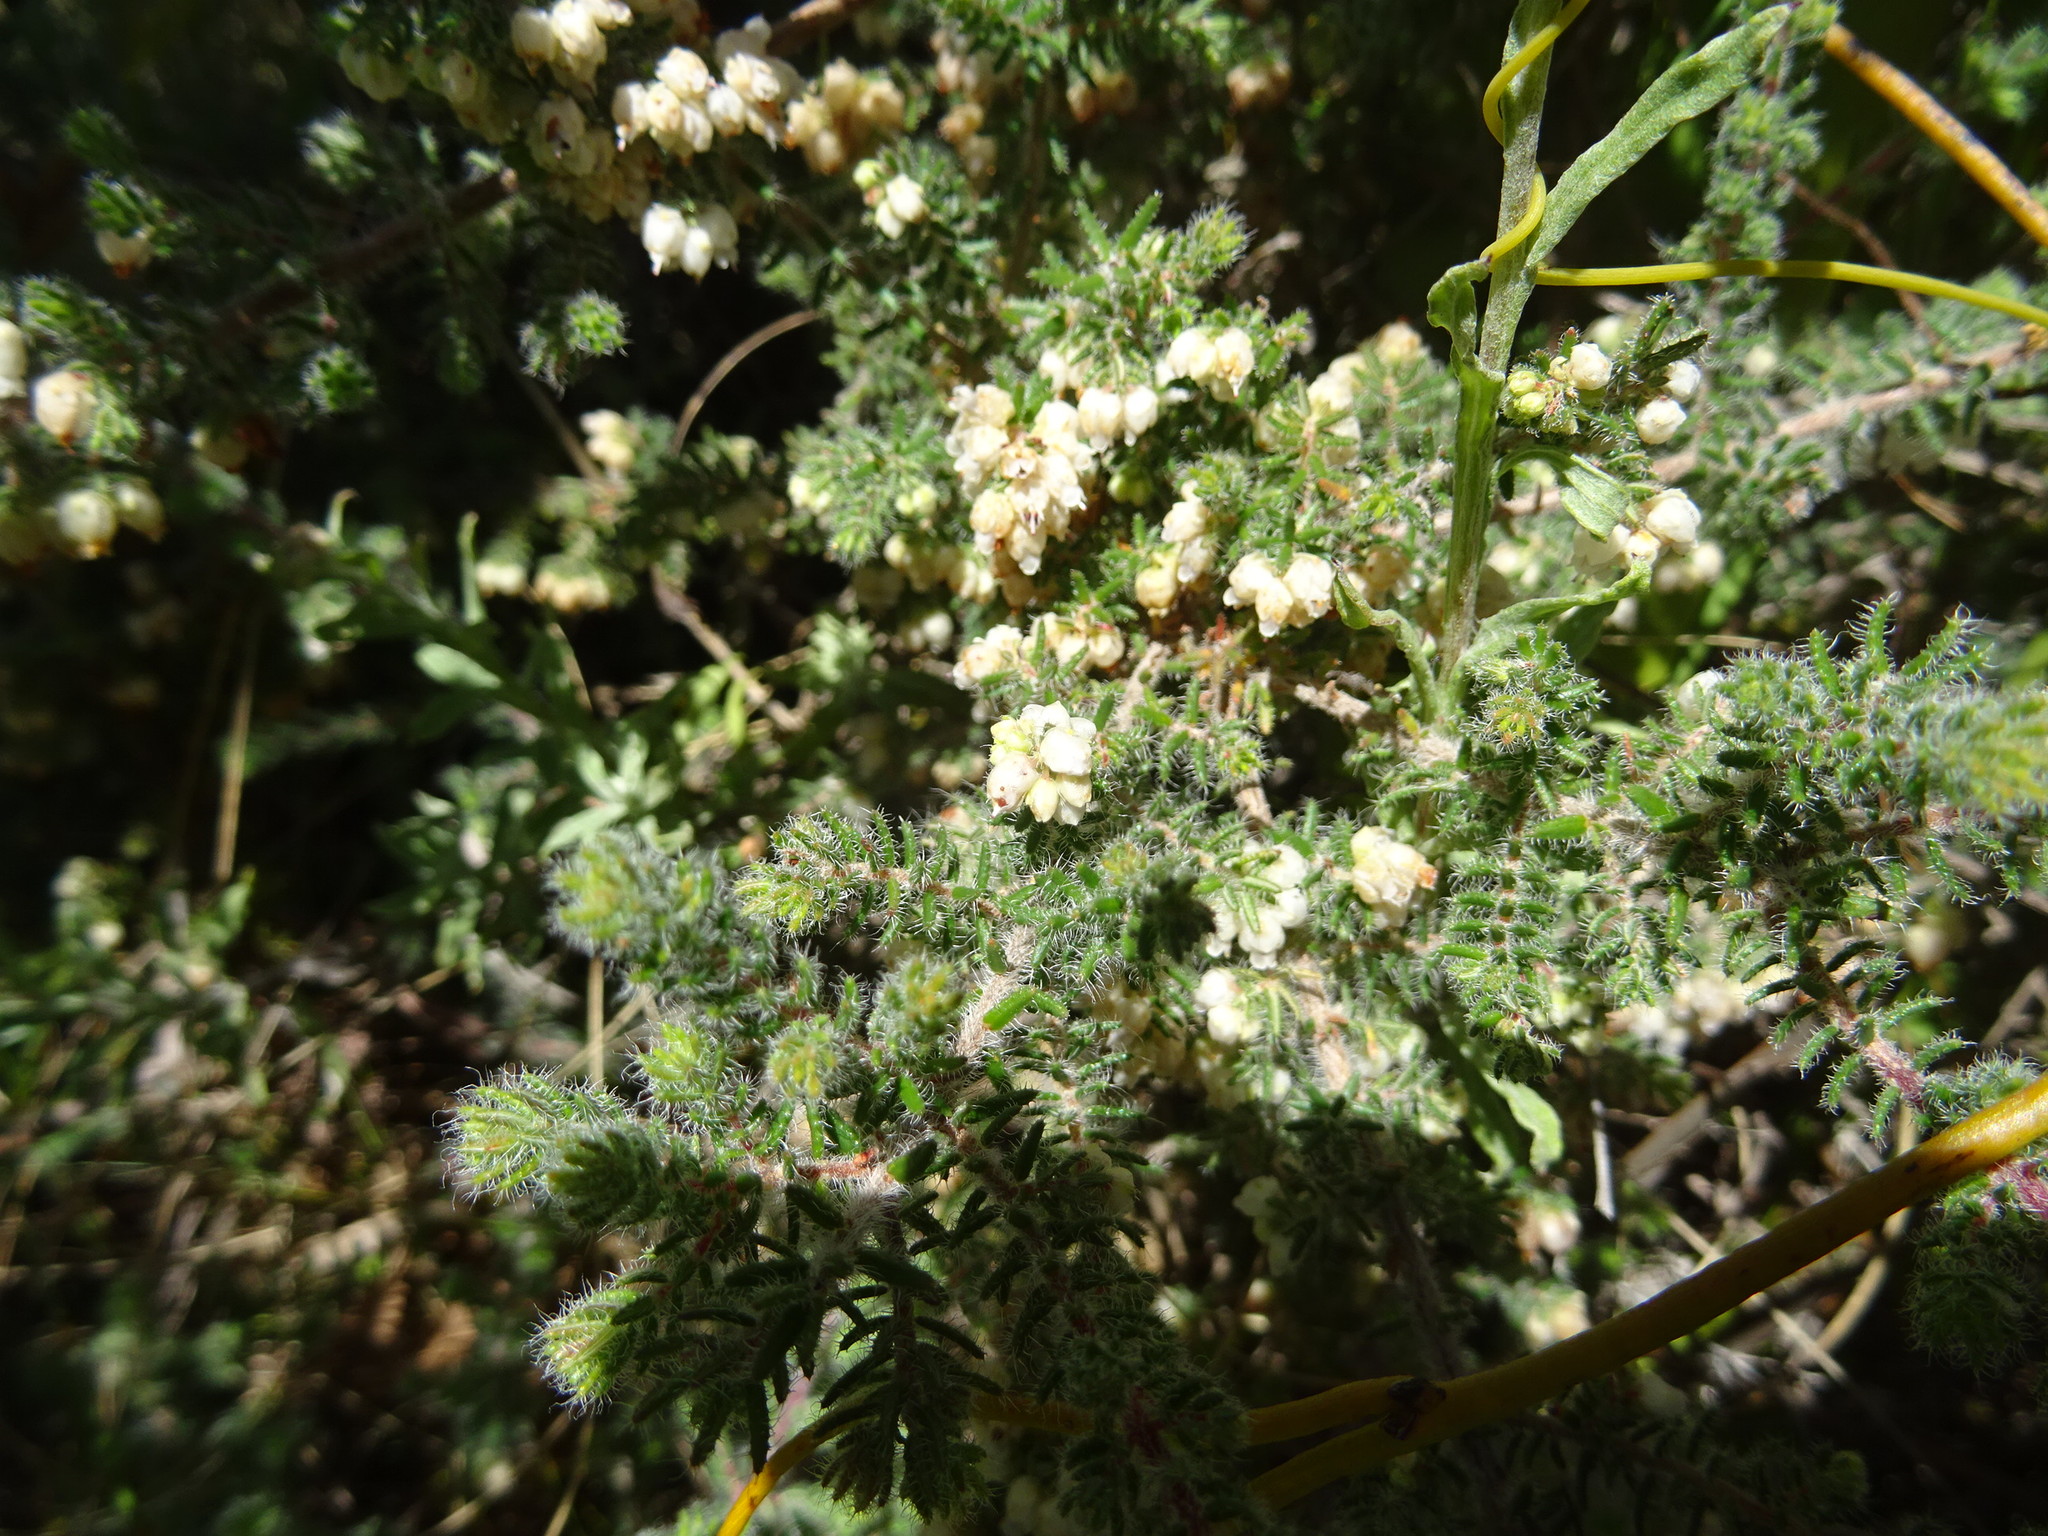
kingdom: Plantae
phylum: Tracheophyta
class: Magnoliopsida
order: Ericales
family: Ericaceae
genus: Erica
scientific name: Erica totta
